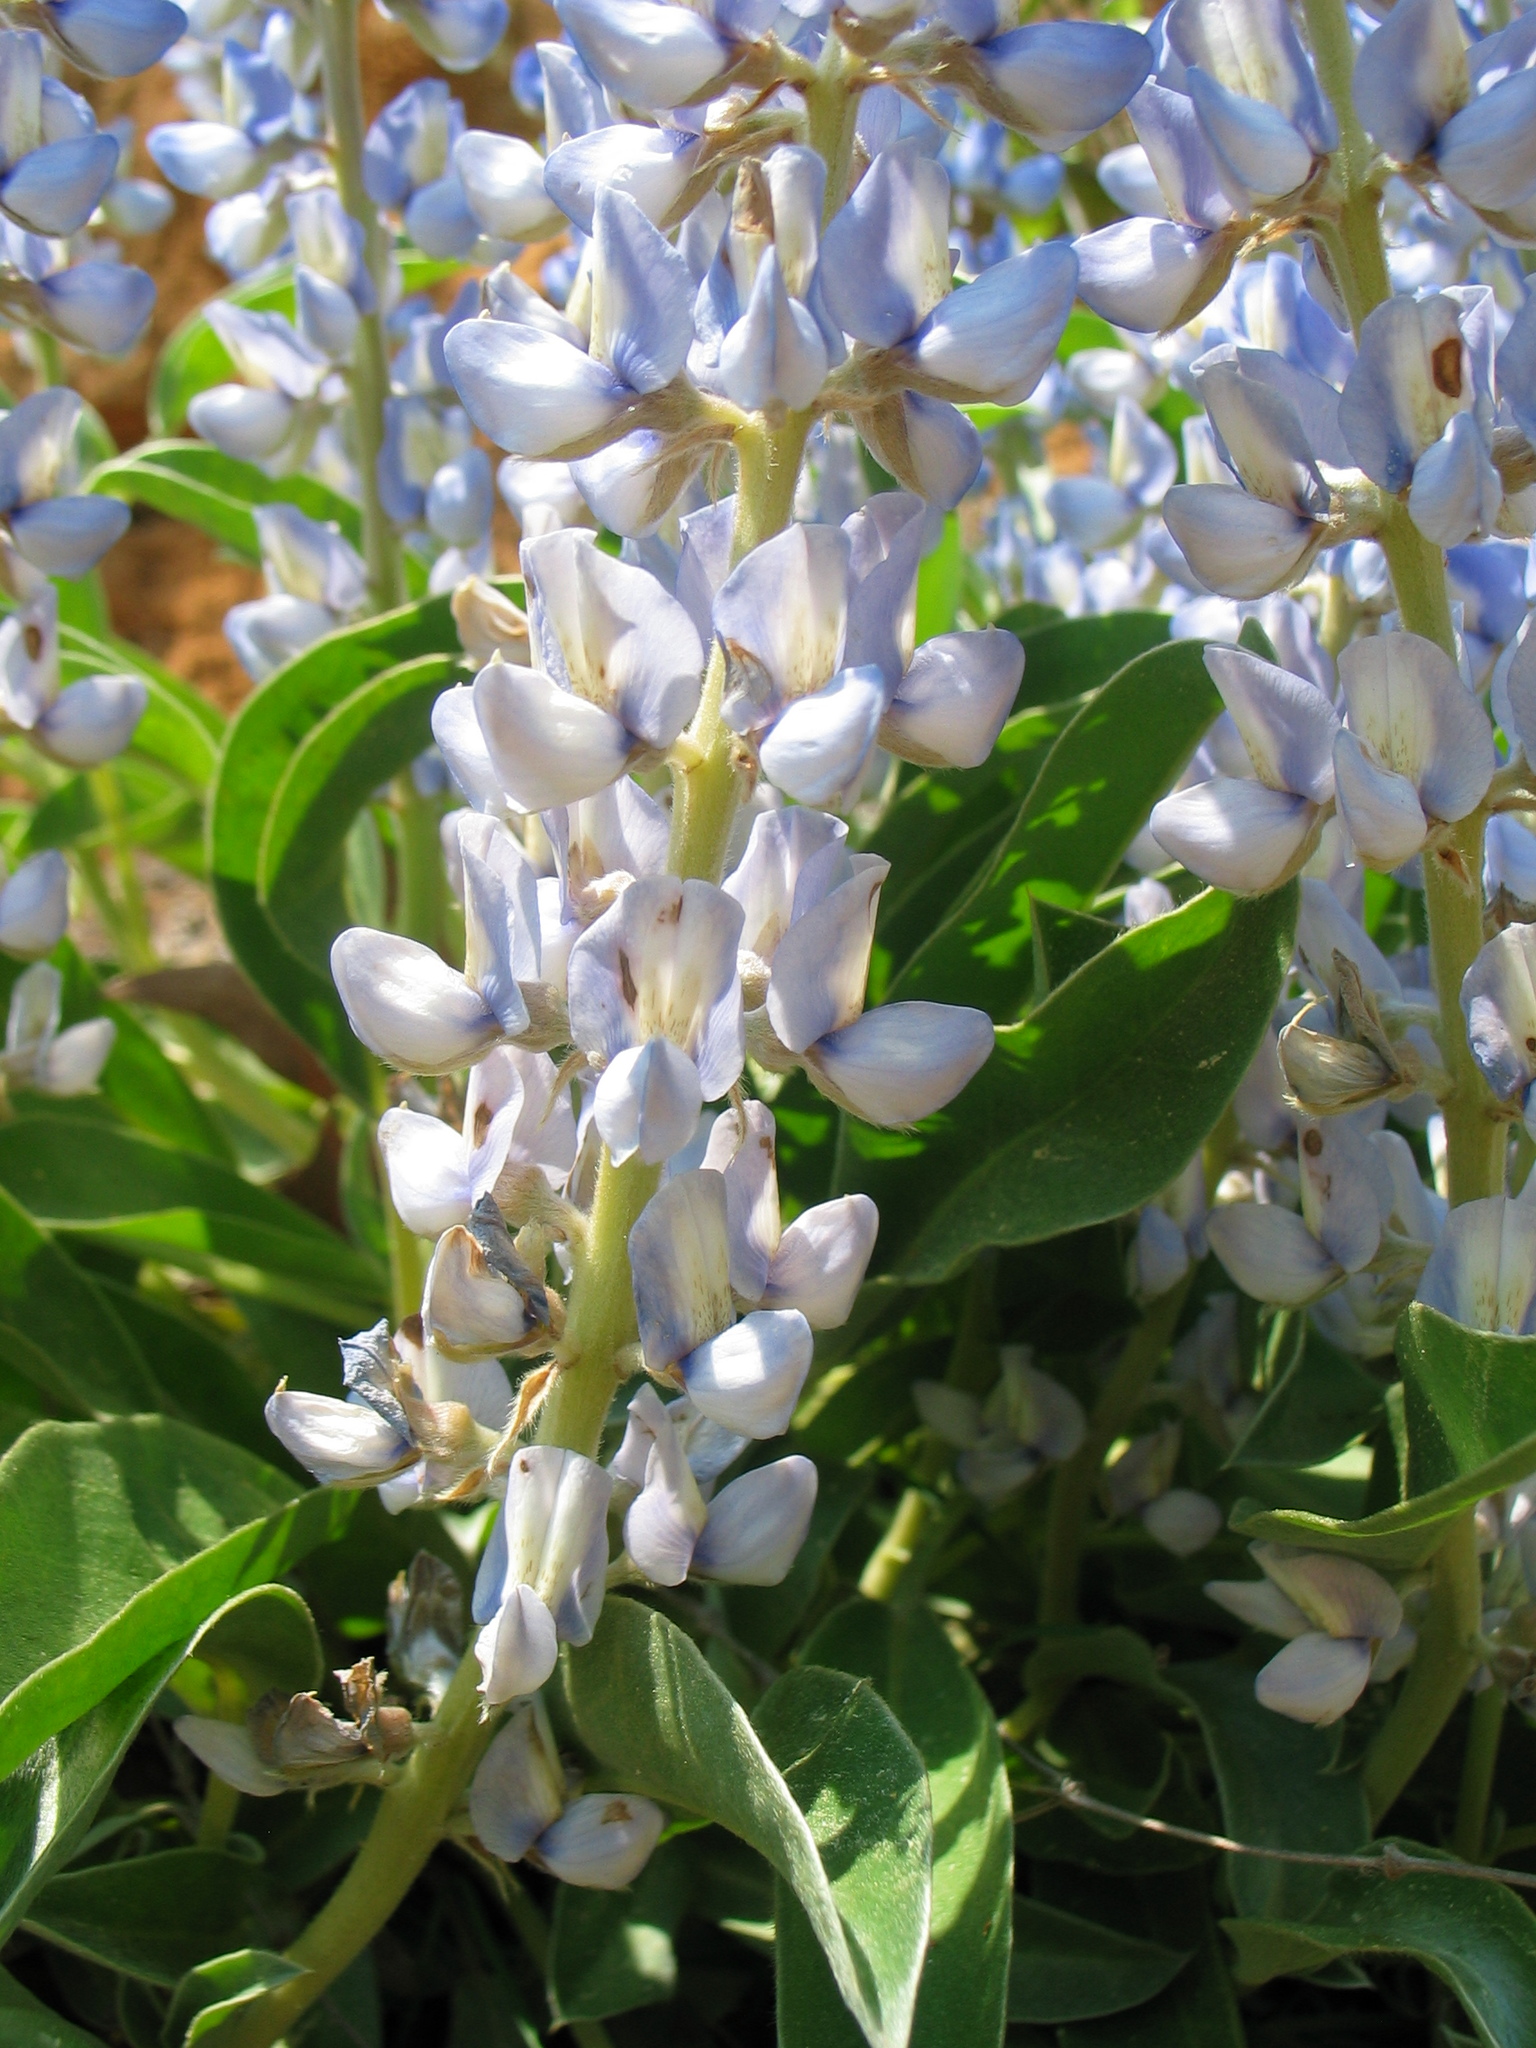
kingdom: Plantae
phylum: Tracheophyta
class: Magnoliopsida
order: Fabales
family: Fabaceae
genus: Lupinus
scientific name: Lupinus diffusus
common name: Oak ridge lupine
